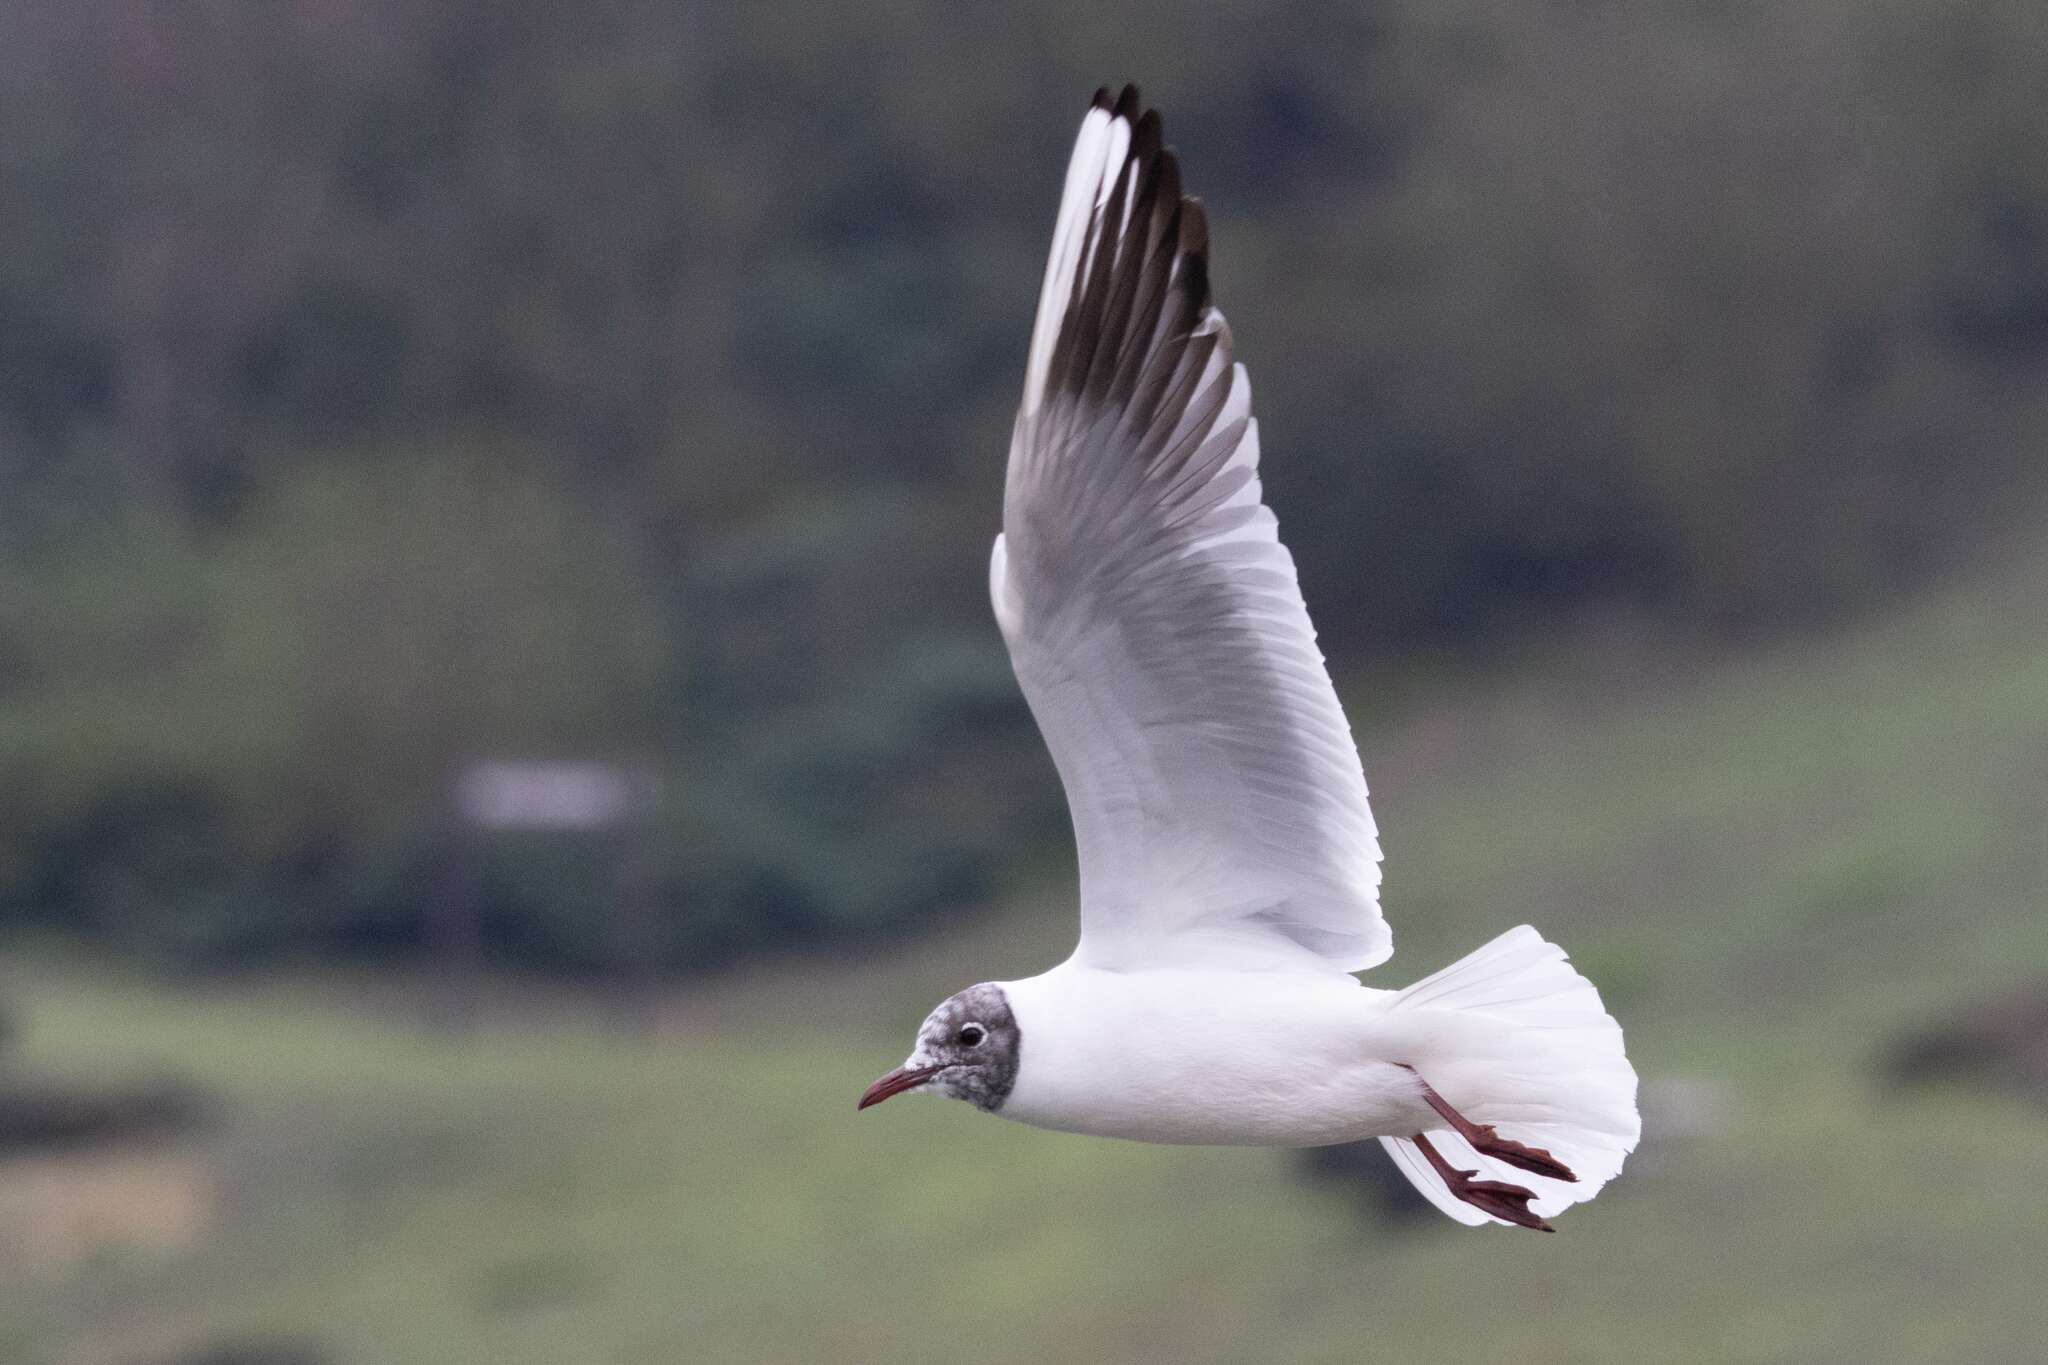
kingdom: Animalia
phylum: Chordata
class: Aves
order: Charadriiformes
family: Laridae
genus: Chroicocephalus
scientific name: Chroicocephalus ridibundus
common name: Black-headed gull
